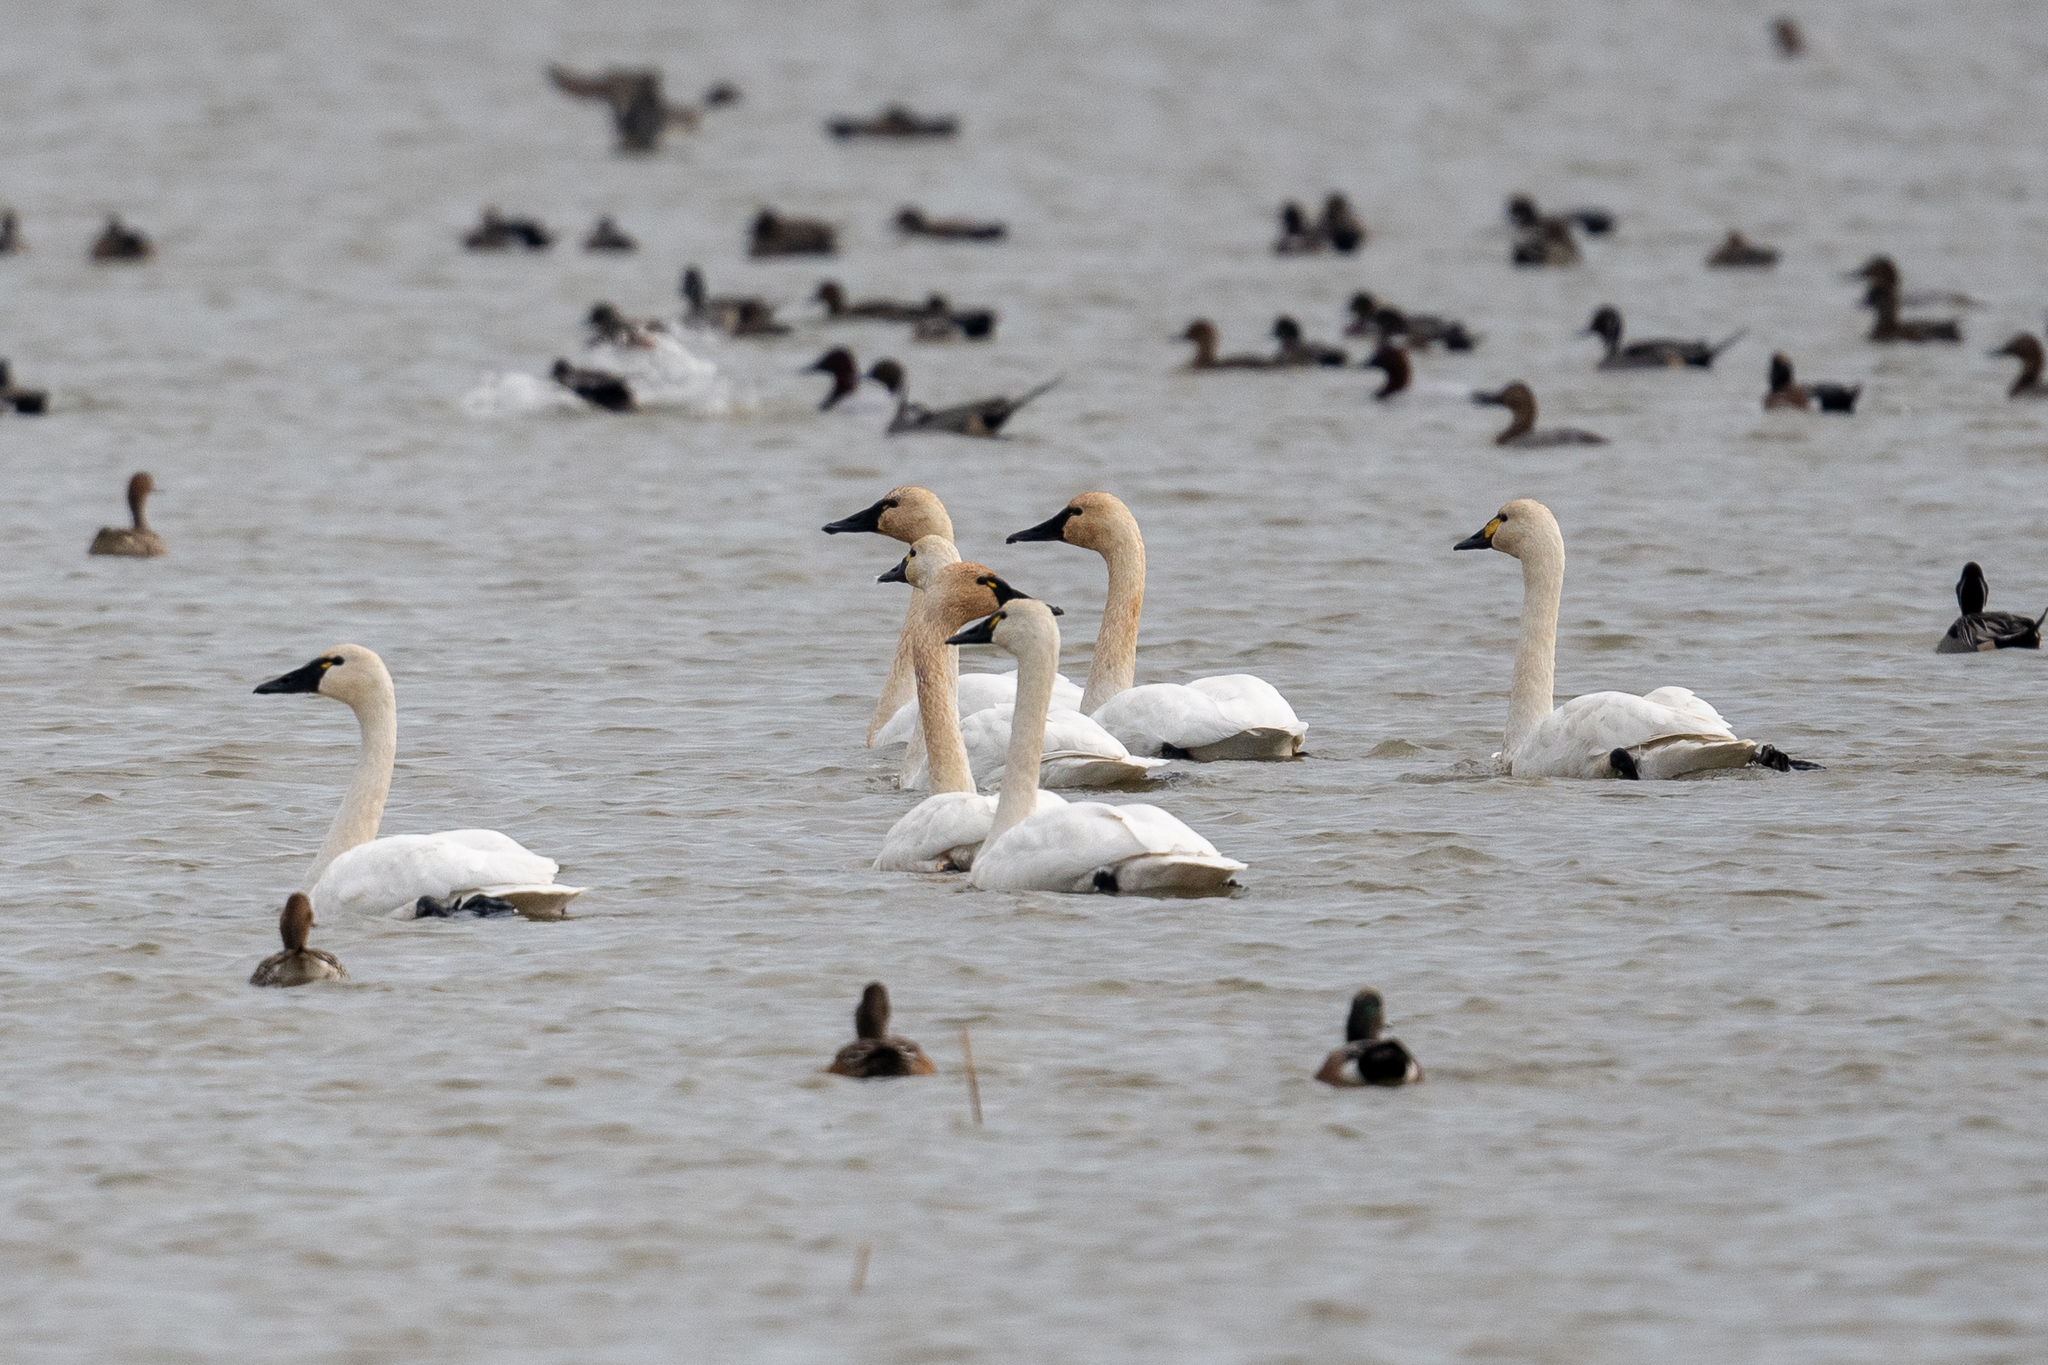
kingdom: Animalia
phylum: Chordata
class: Aves
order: Anseriformes
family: Anatidae
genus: Cygnus
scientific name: Cygnus columbianus
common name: Tundra swan
